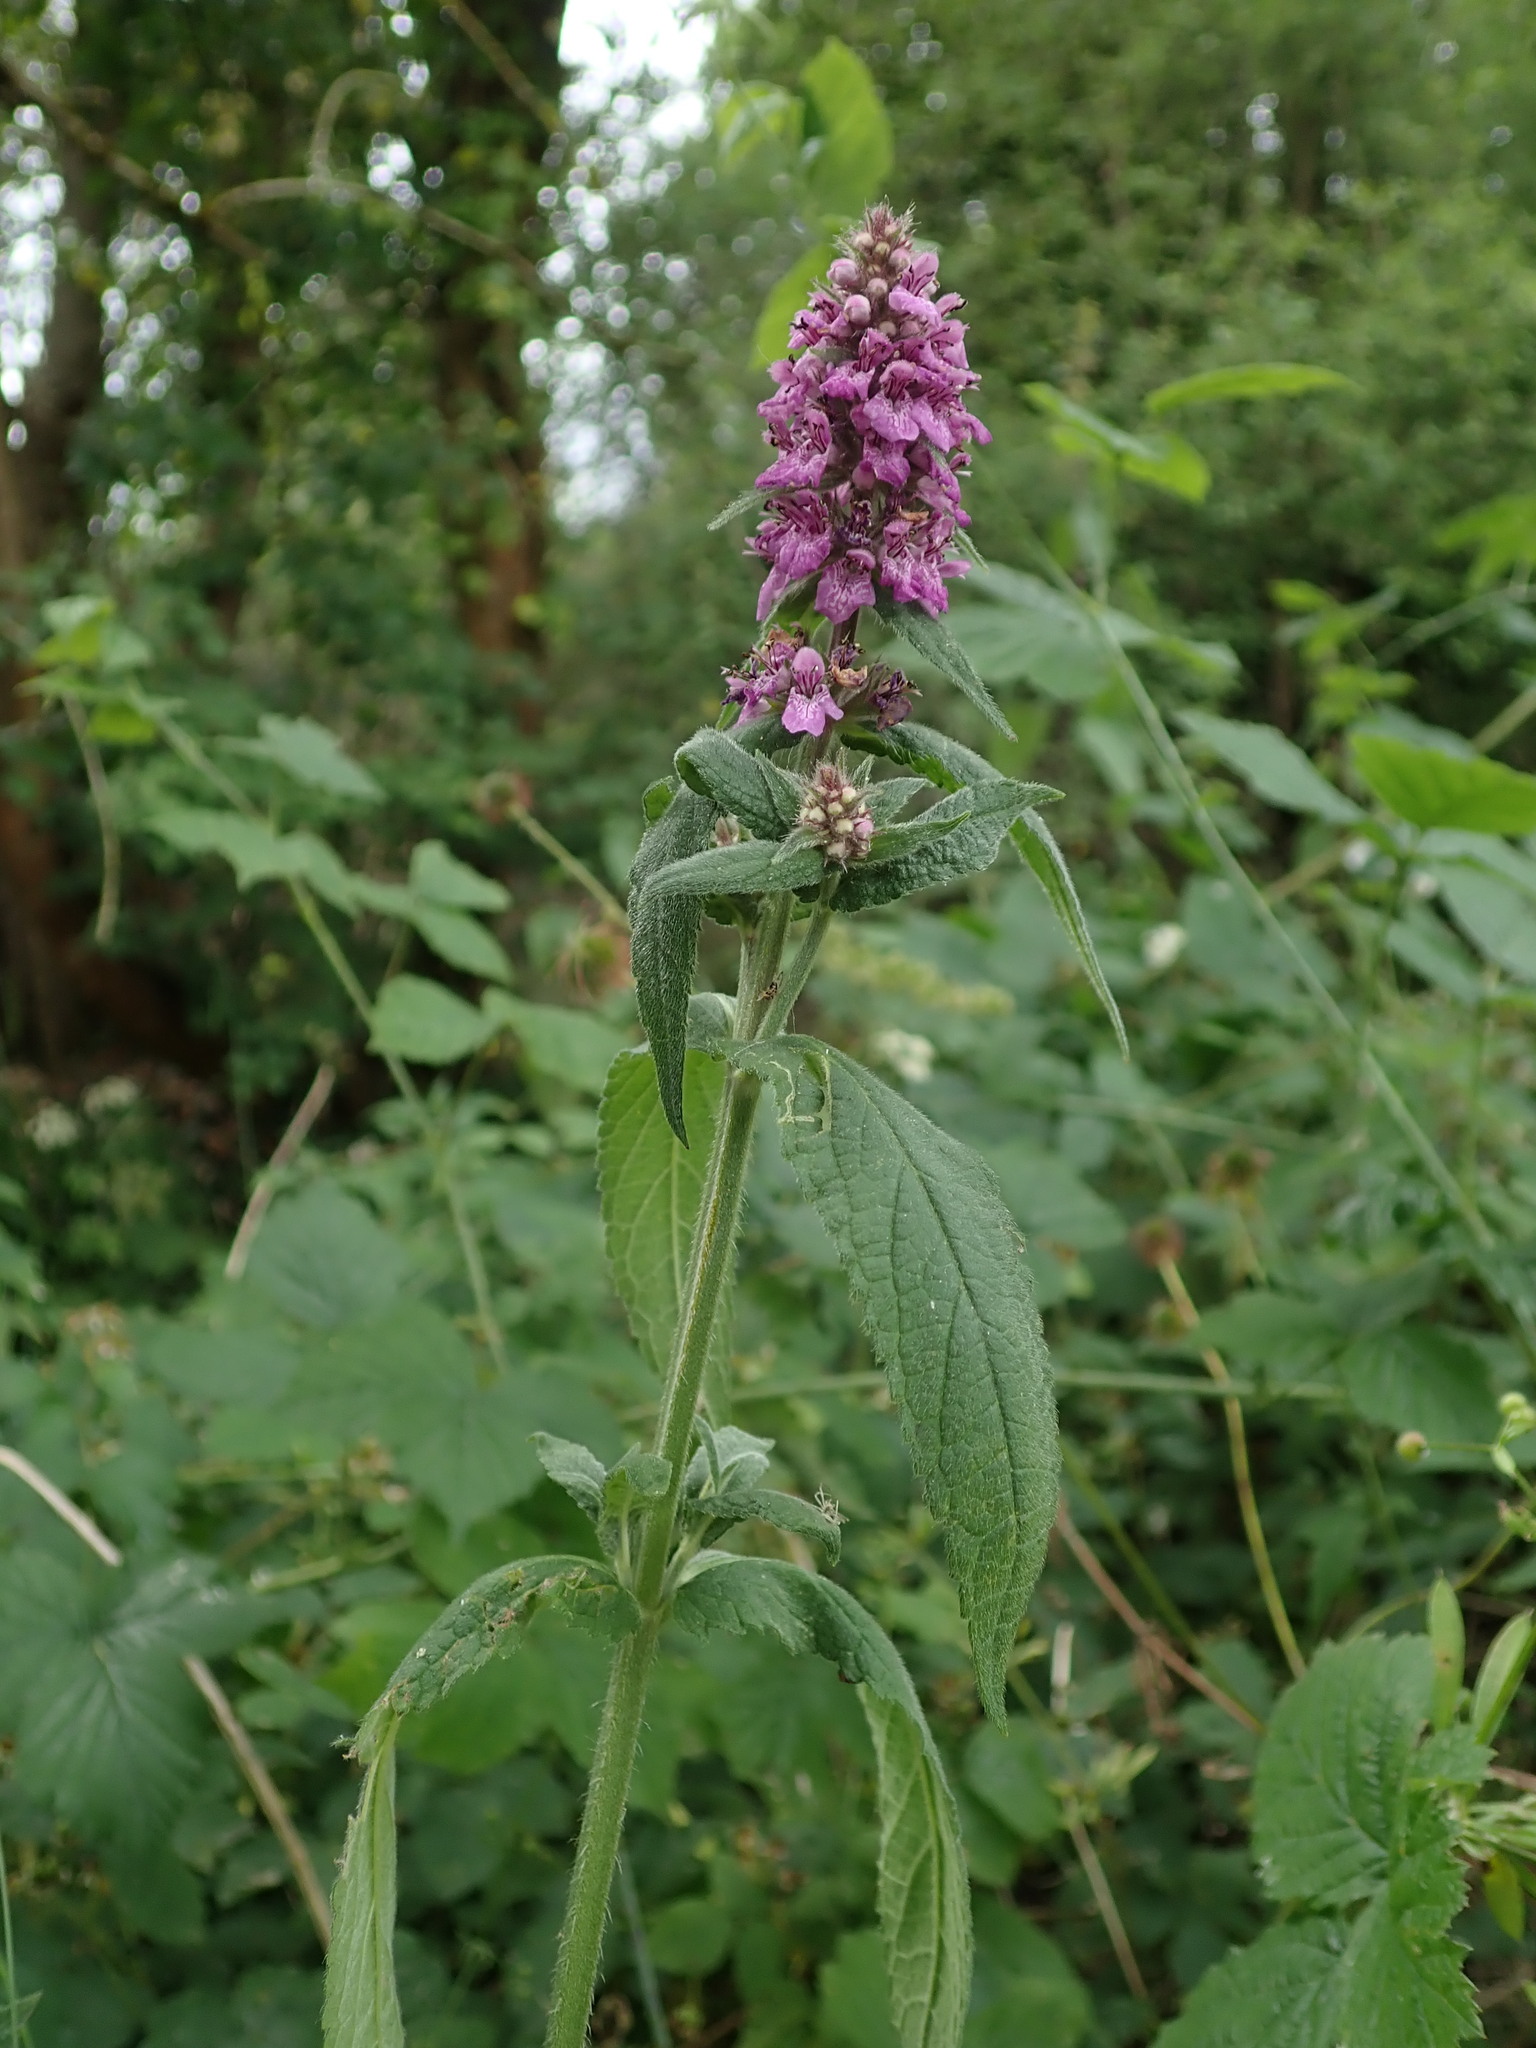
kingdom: Plantae
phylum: Tracheophyta
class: Magnoliopsida
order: Lamiales
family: Lamiaceae
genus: Stachys
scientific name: Stachys palustris
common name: Marsh woundwort
